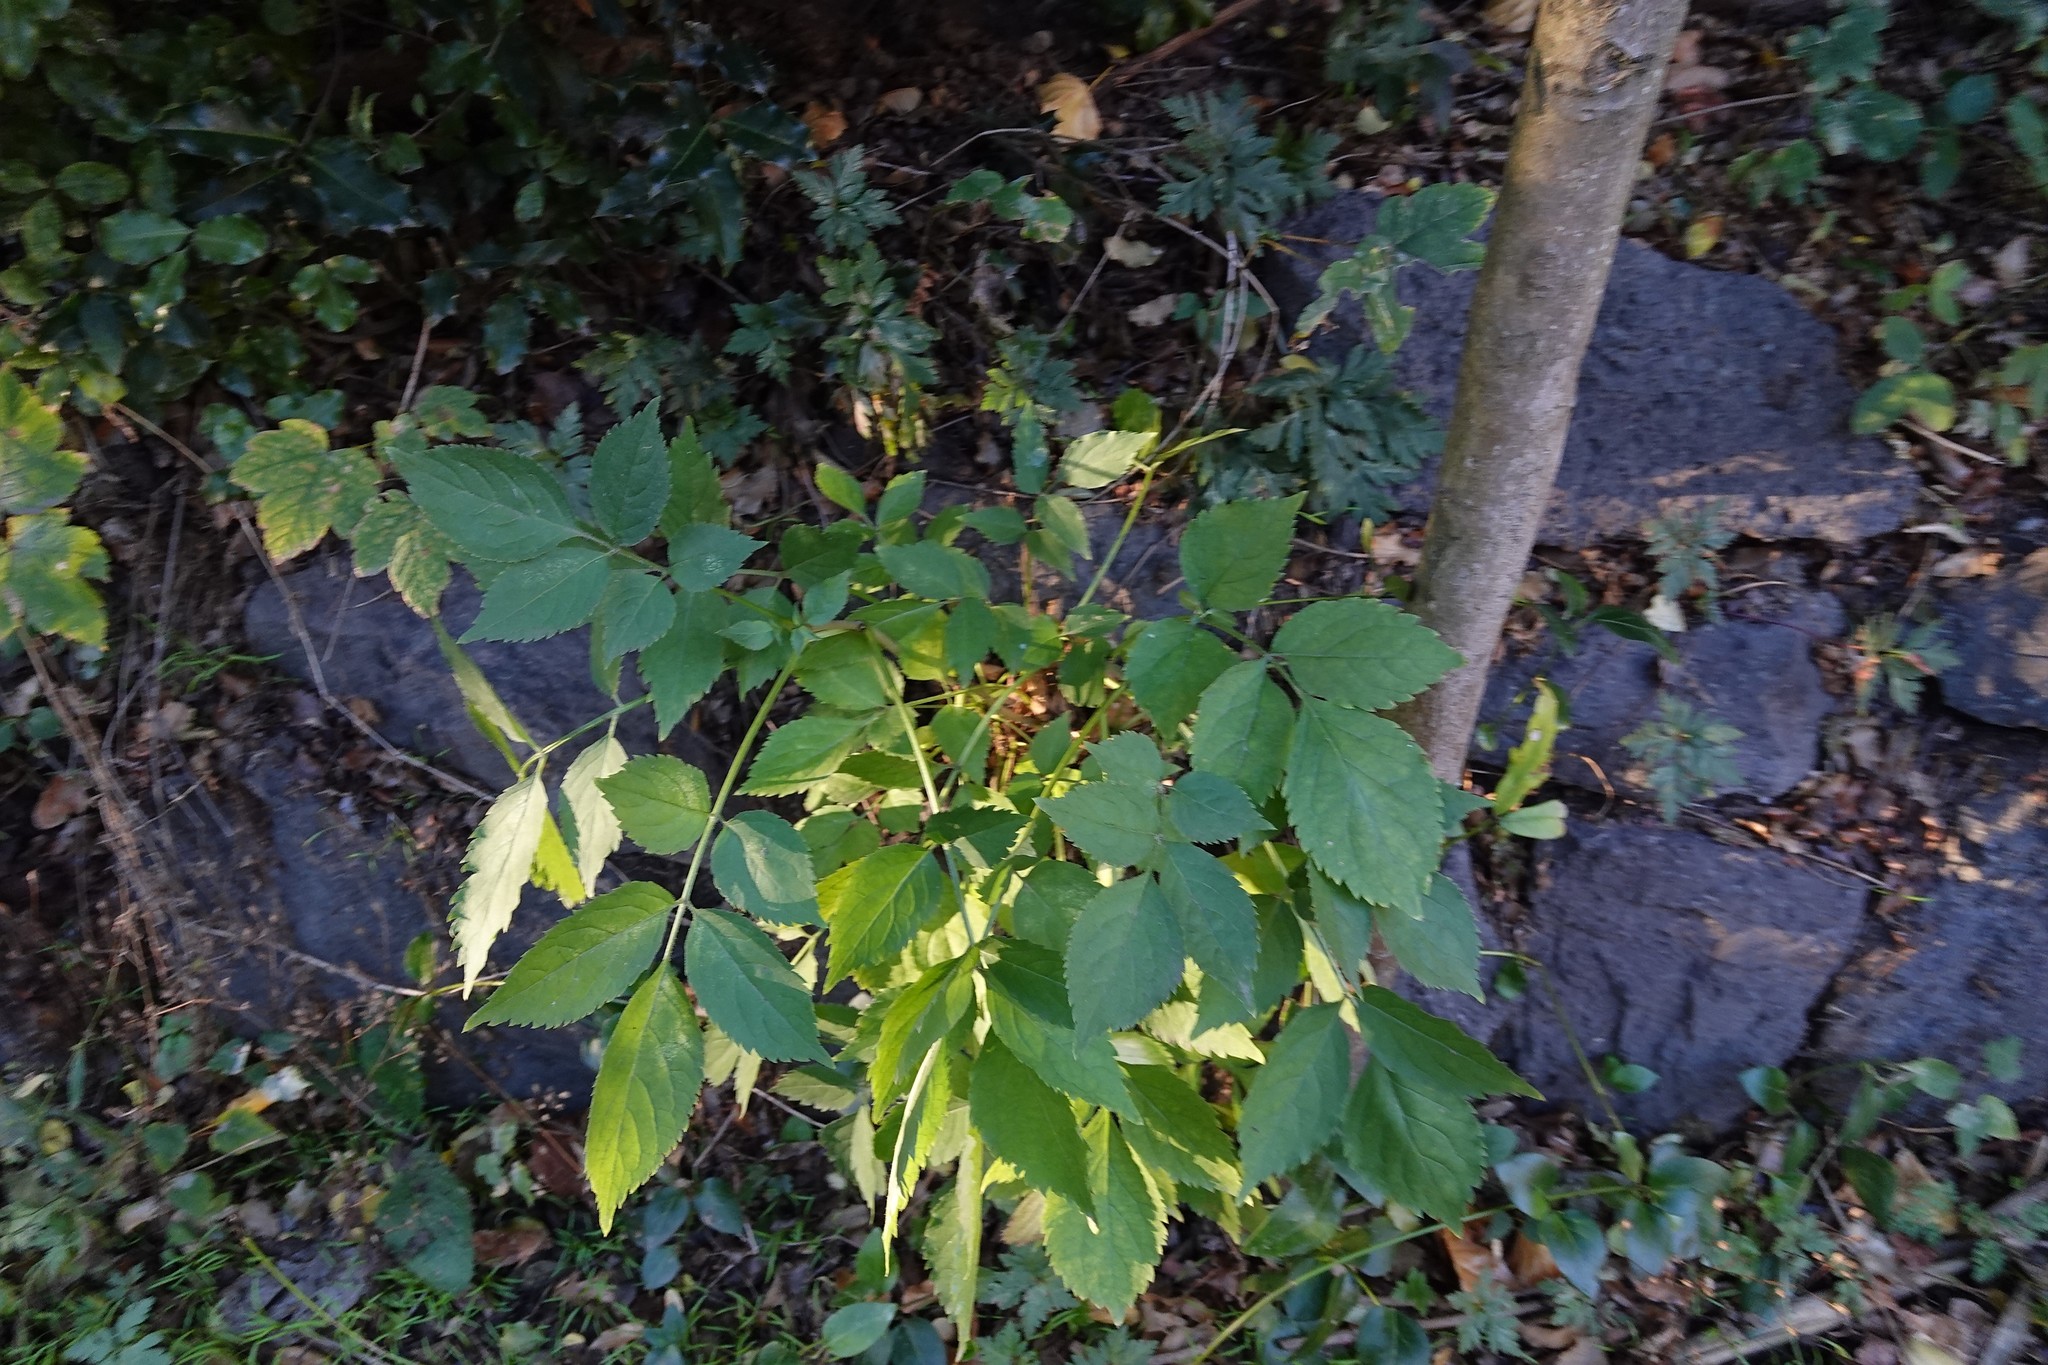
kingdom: Plantae
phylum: Tracheophyta
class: Magnoliopsida
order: Dipsacales
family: Viburnaceae
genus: Sambucus
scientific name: Sambucus nigra
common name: Elder
